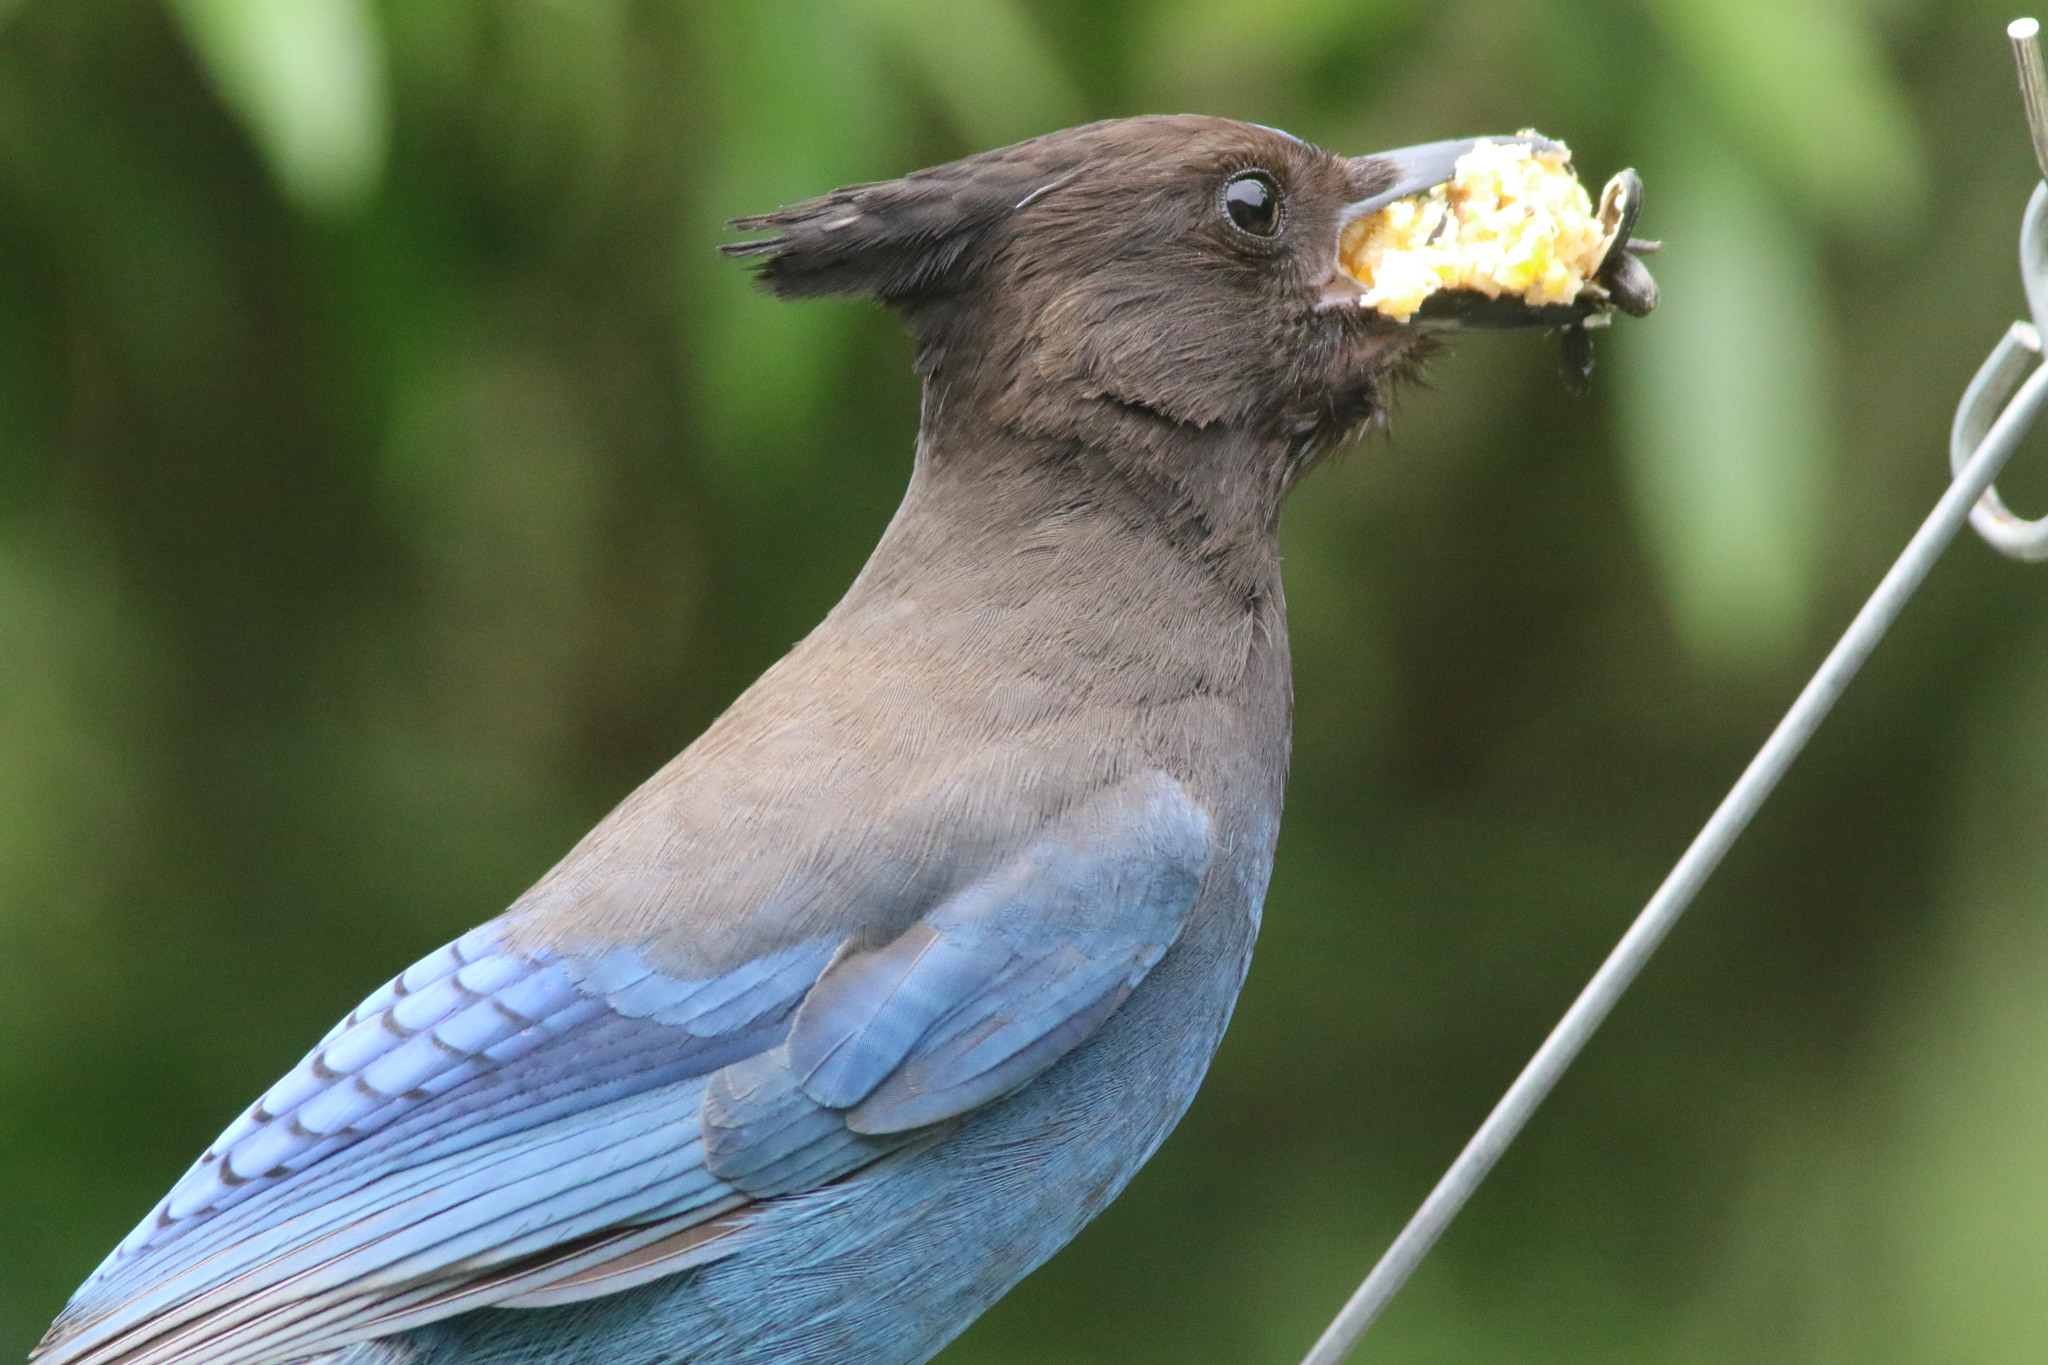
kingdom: Animalia
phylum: Chordata
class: Aves
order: Passeriformes
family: Corvidae
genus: Cyanocitta
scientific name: Cyanocitta stelleri
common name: Steller's jay
